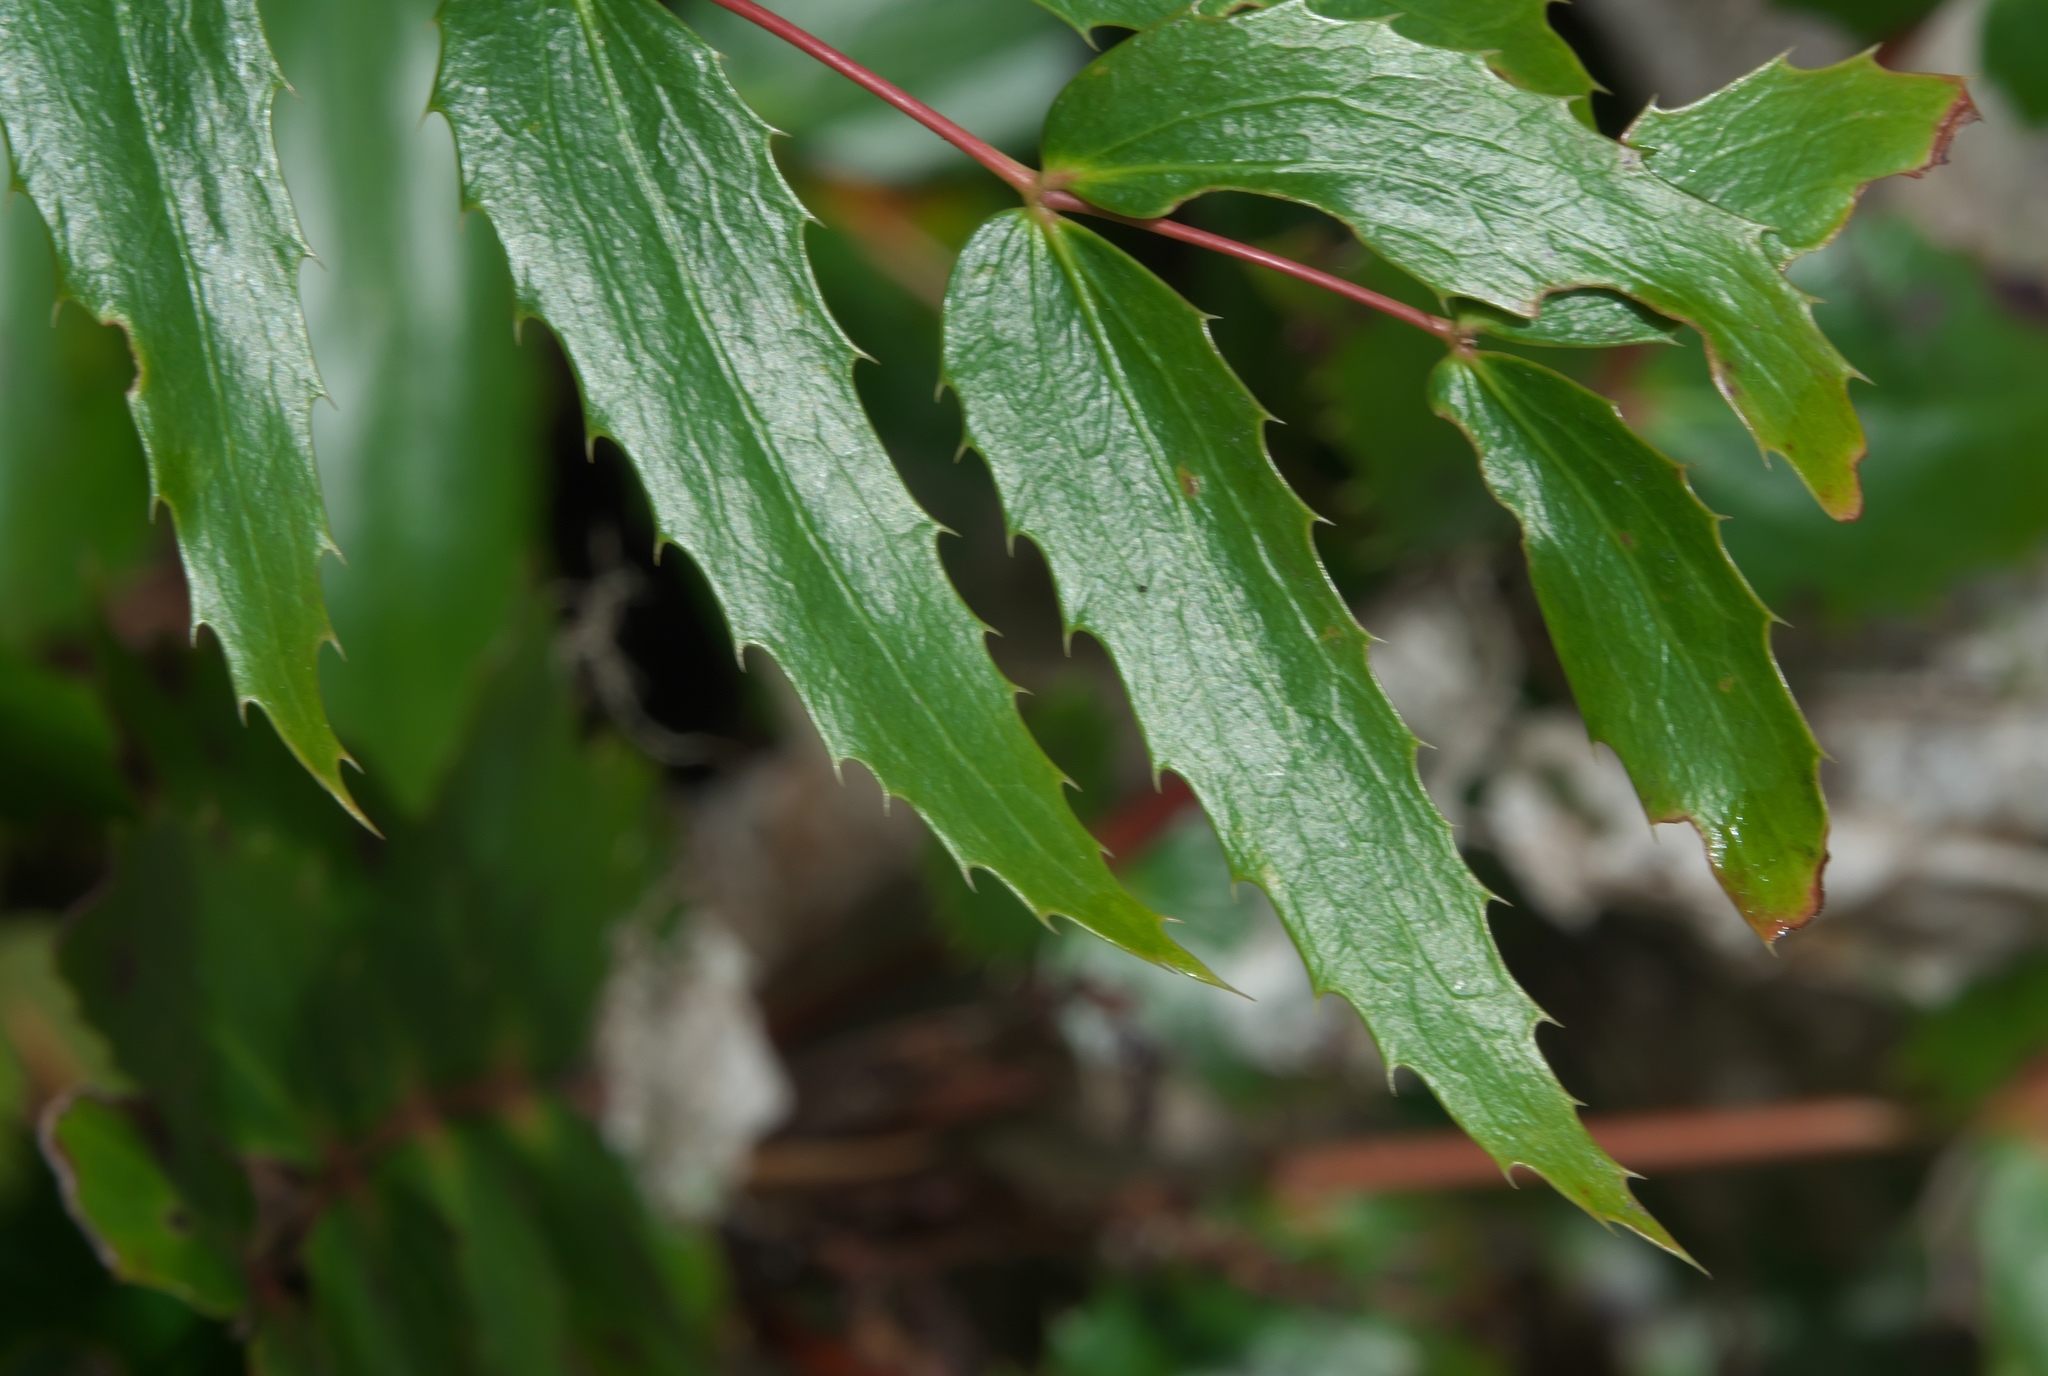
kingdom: Plantae
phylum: Tracheophyta
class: Magnoliopsida
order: Ranunculales
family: Berberidaceae
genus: Mahonia
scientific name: Mahonia nervosa
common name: Cascade oregon-grape
